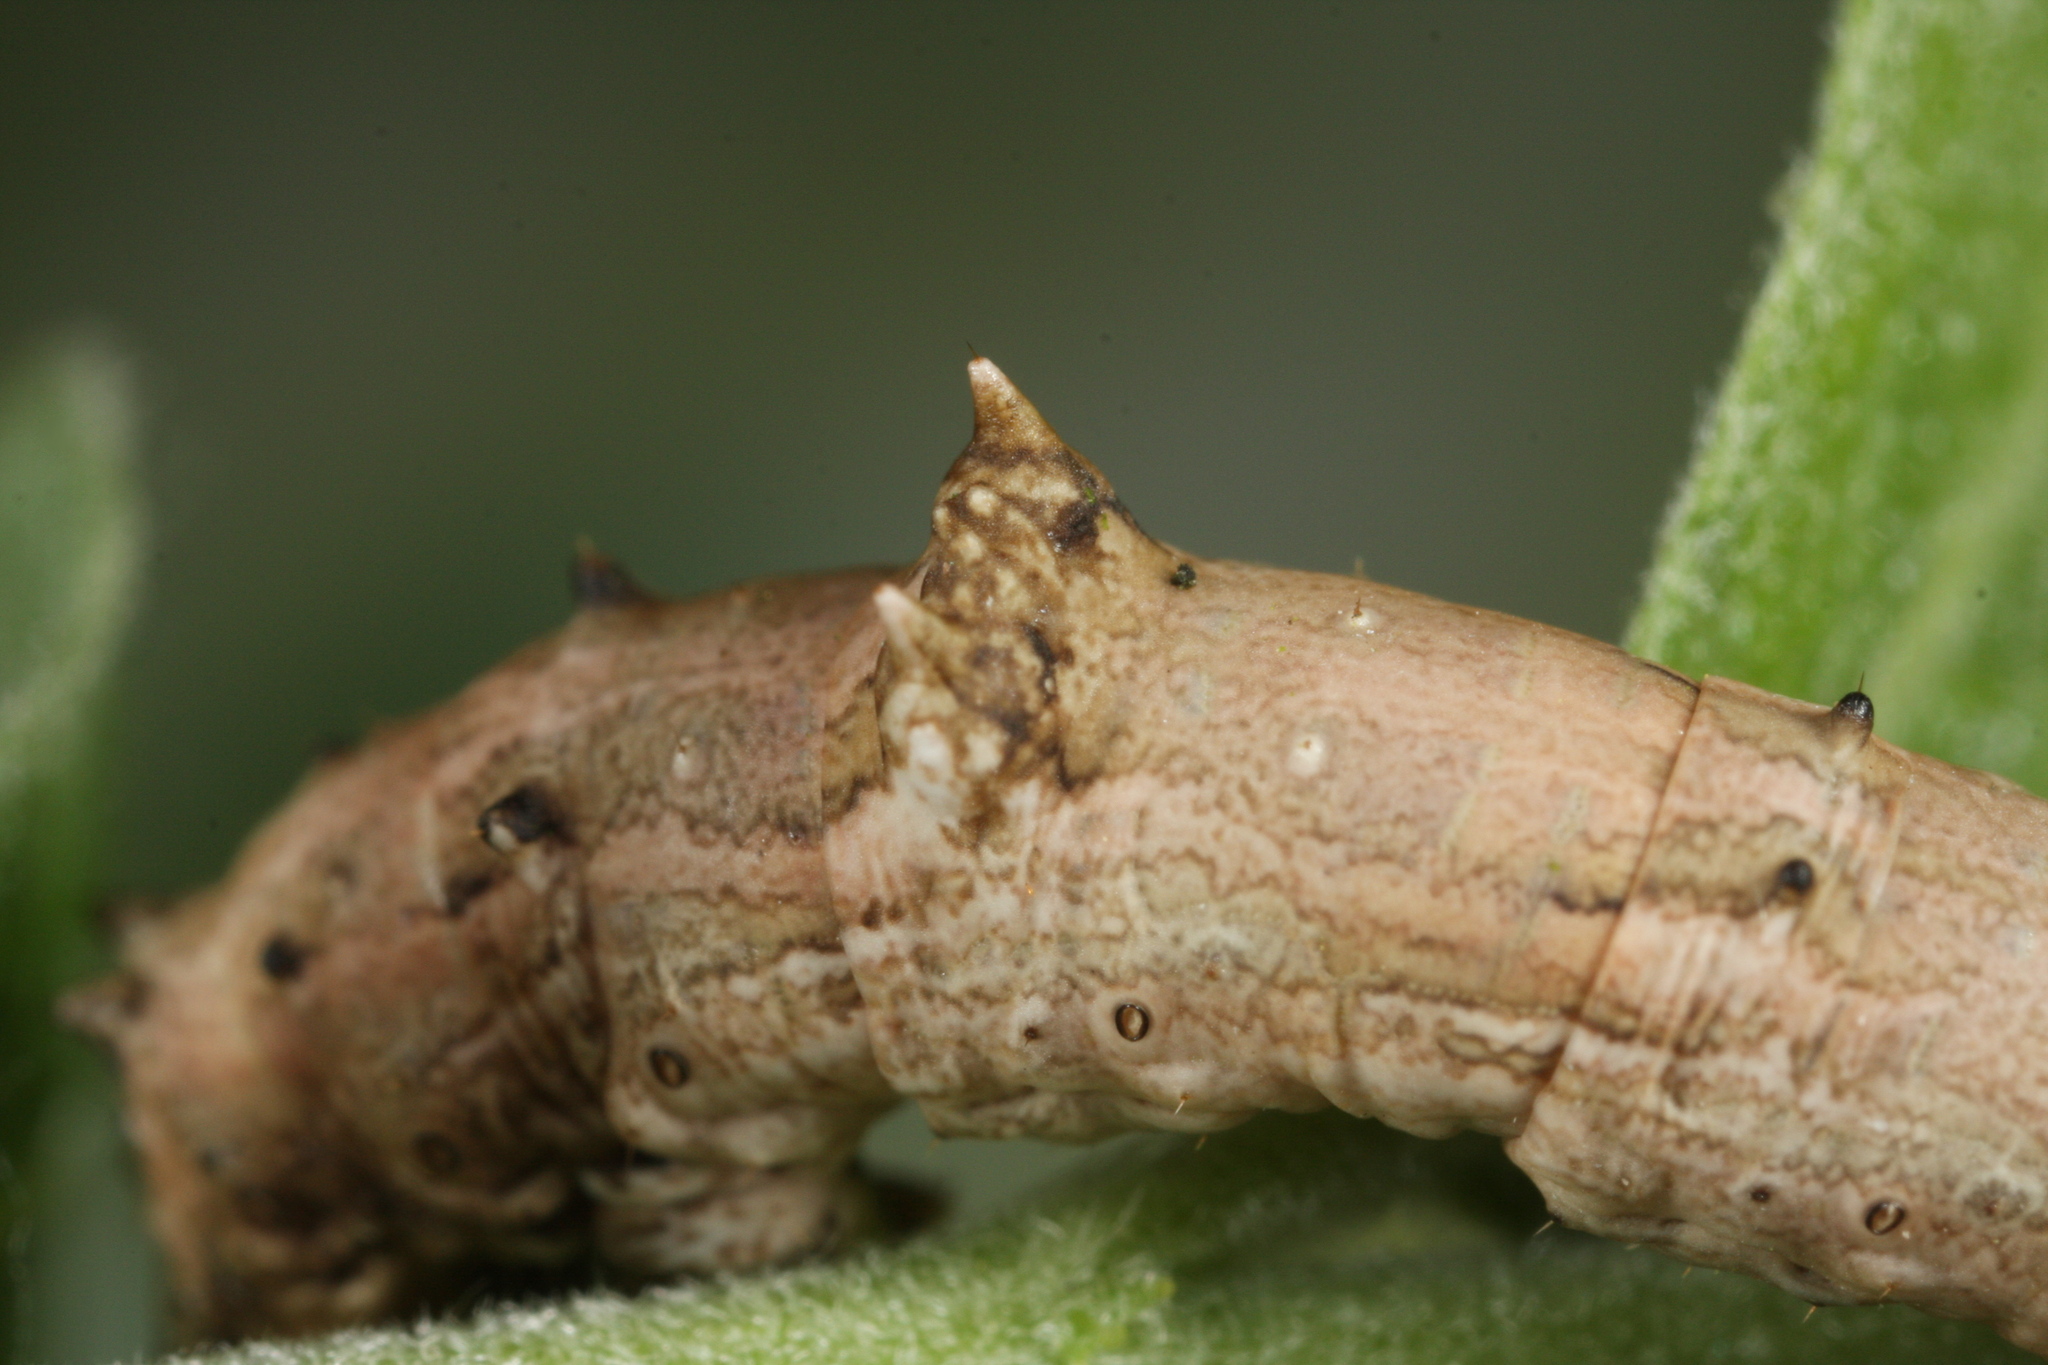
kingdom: Animalia
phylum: Arthropoda
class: Insecta
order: Lepidoptera
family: Geometridae
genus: Angerona
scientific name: Angerona prunaria
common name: Orange moth
